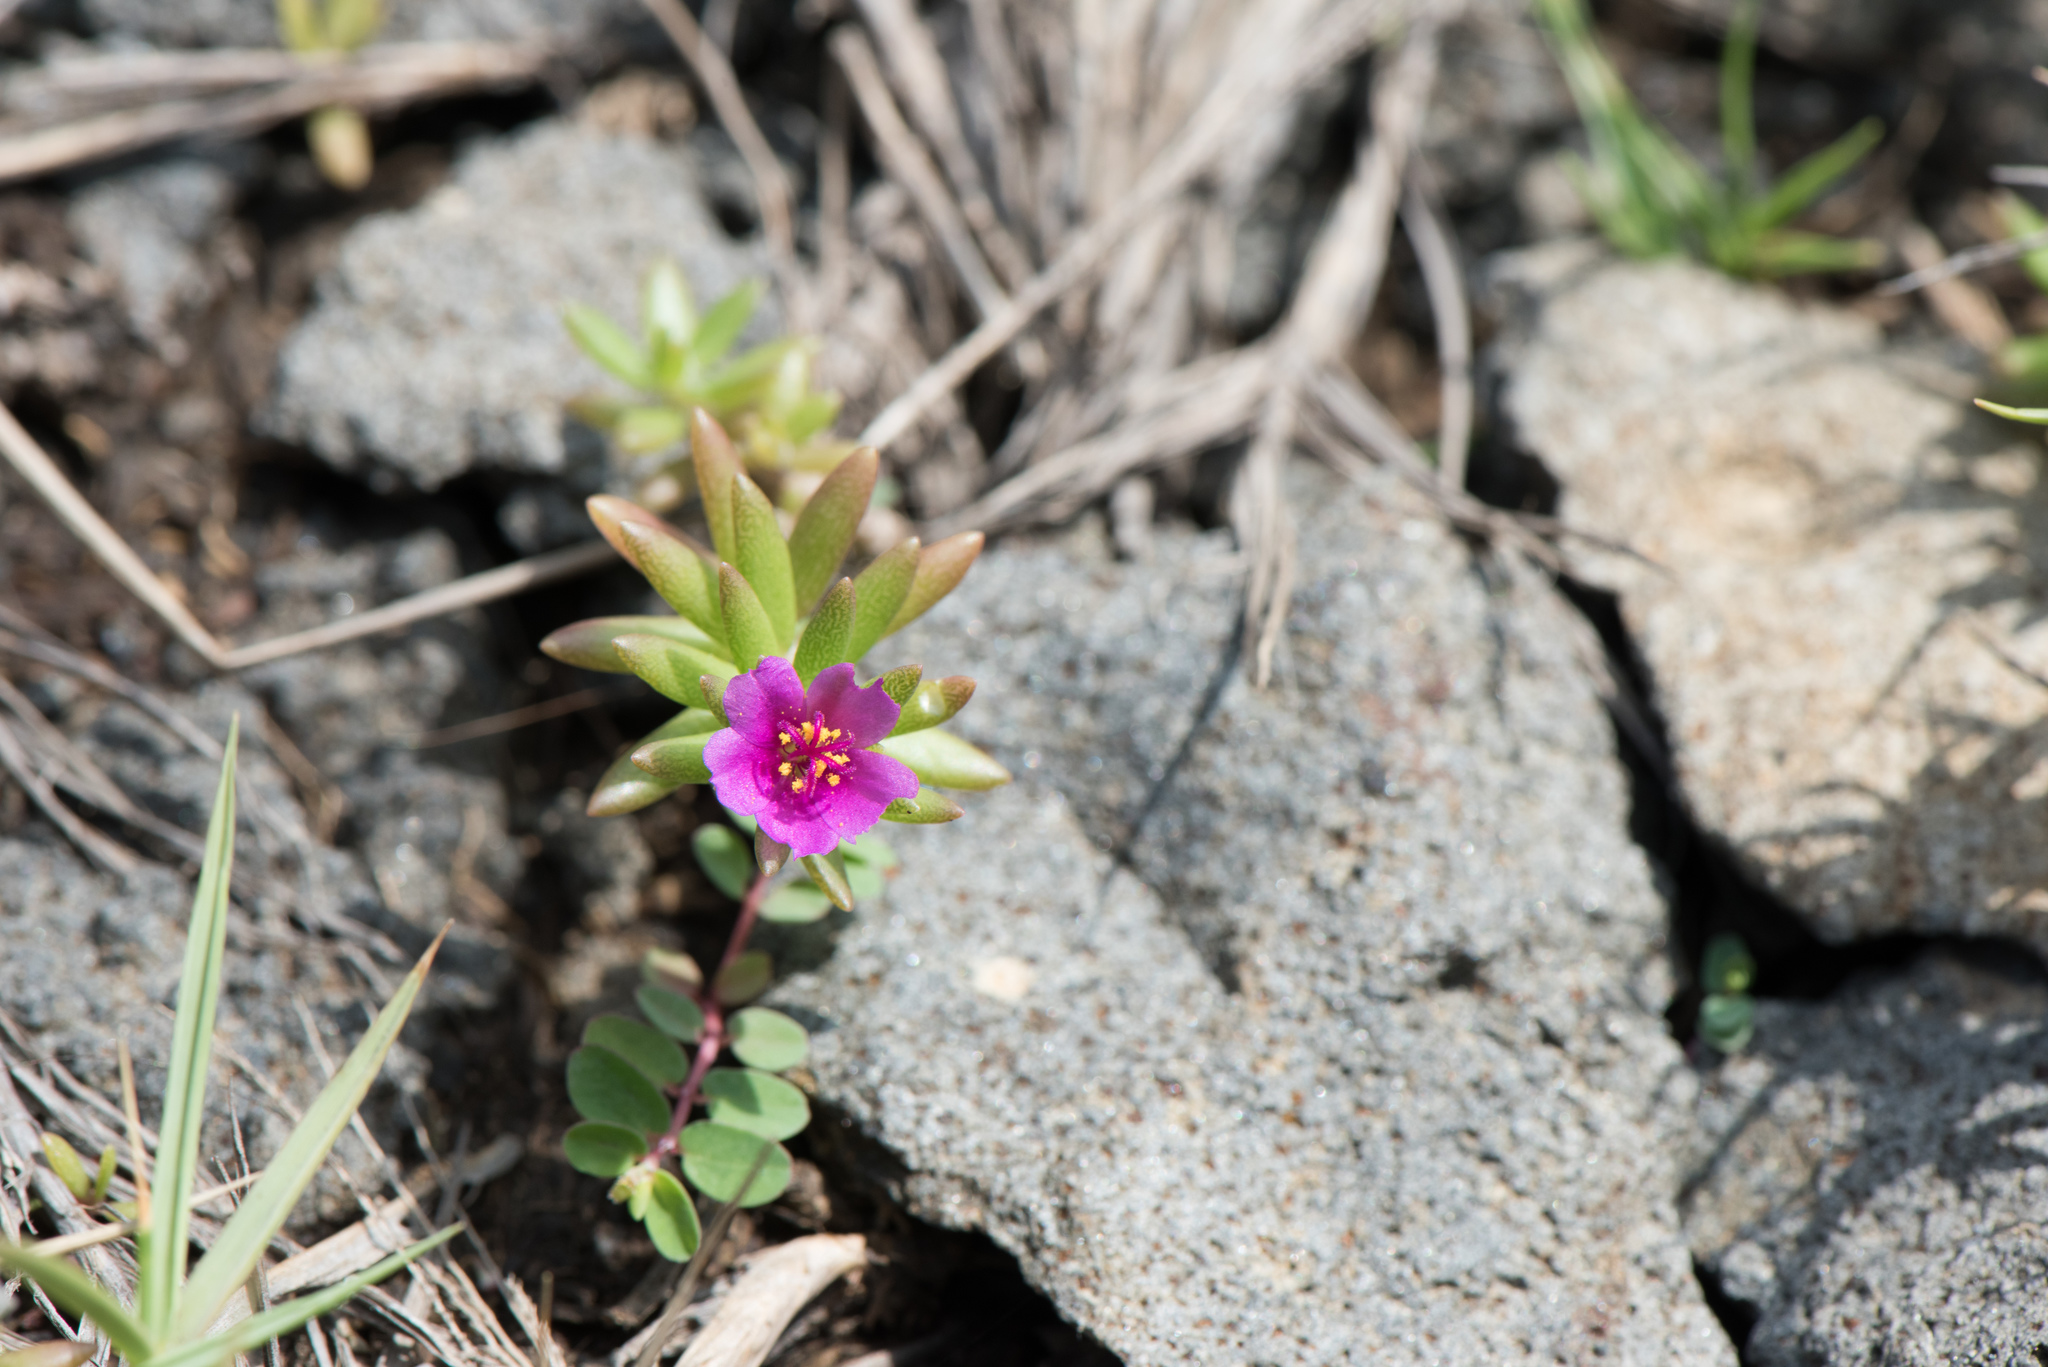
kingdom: Plantae
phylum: Tracheophyta
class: Magnoliopsida
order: Caryophyllales
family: Portulacaceae
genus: Portulaca
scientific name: Portulaca pilosa
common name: Kiss me quick
